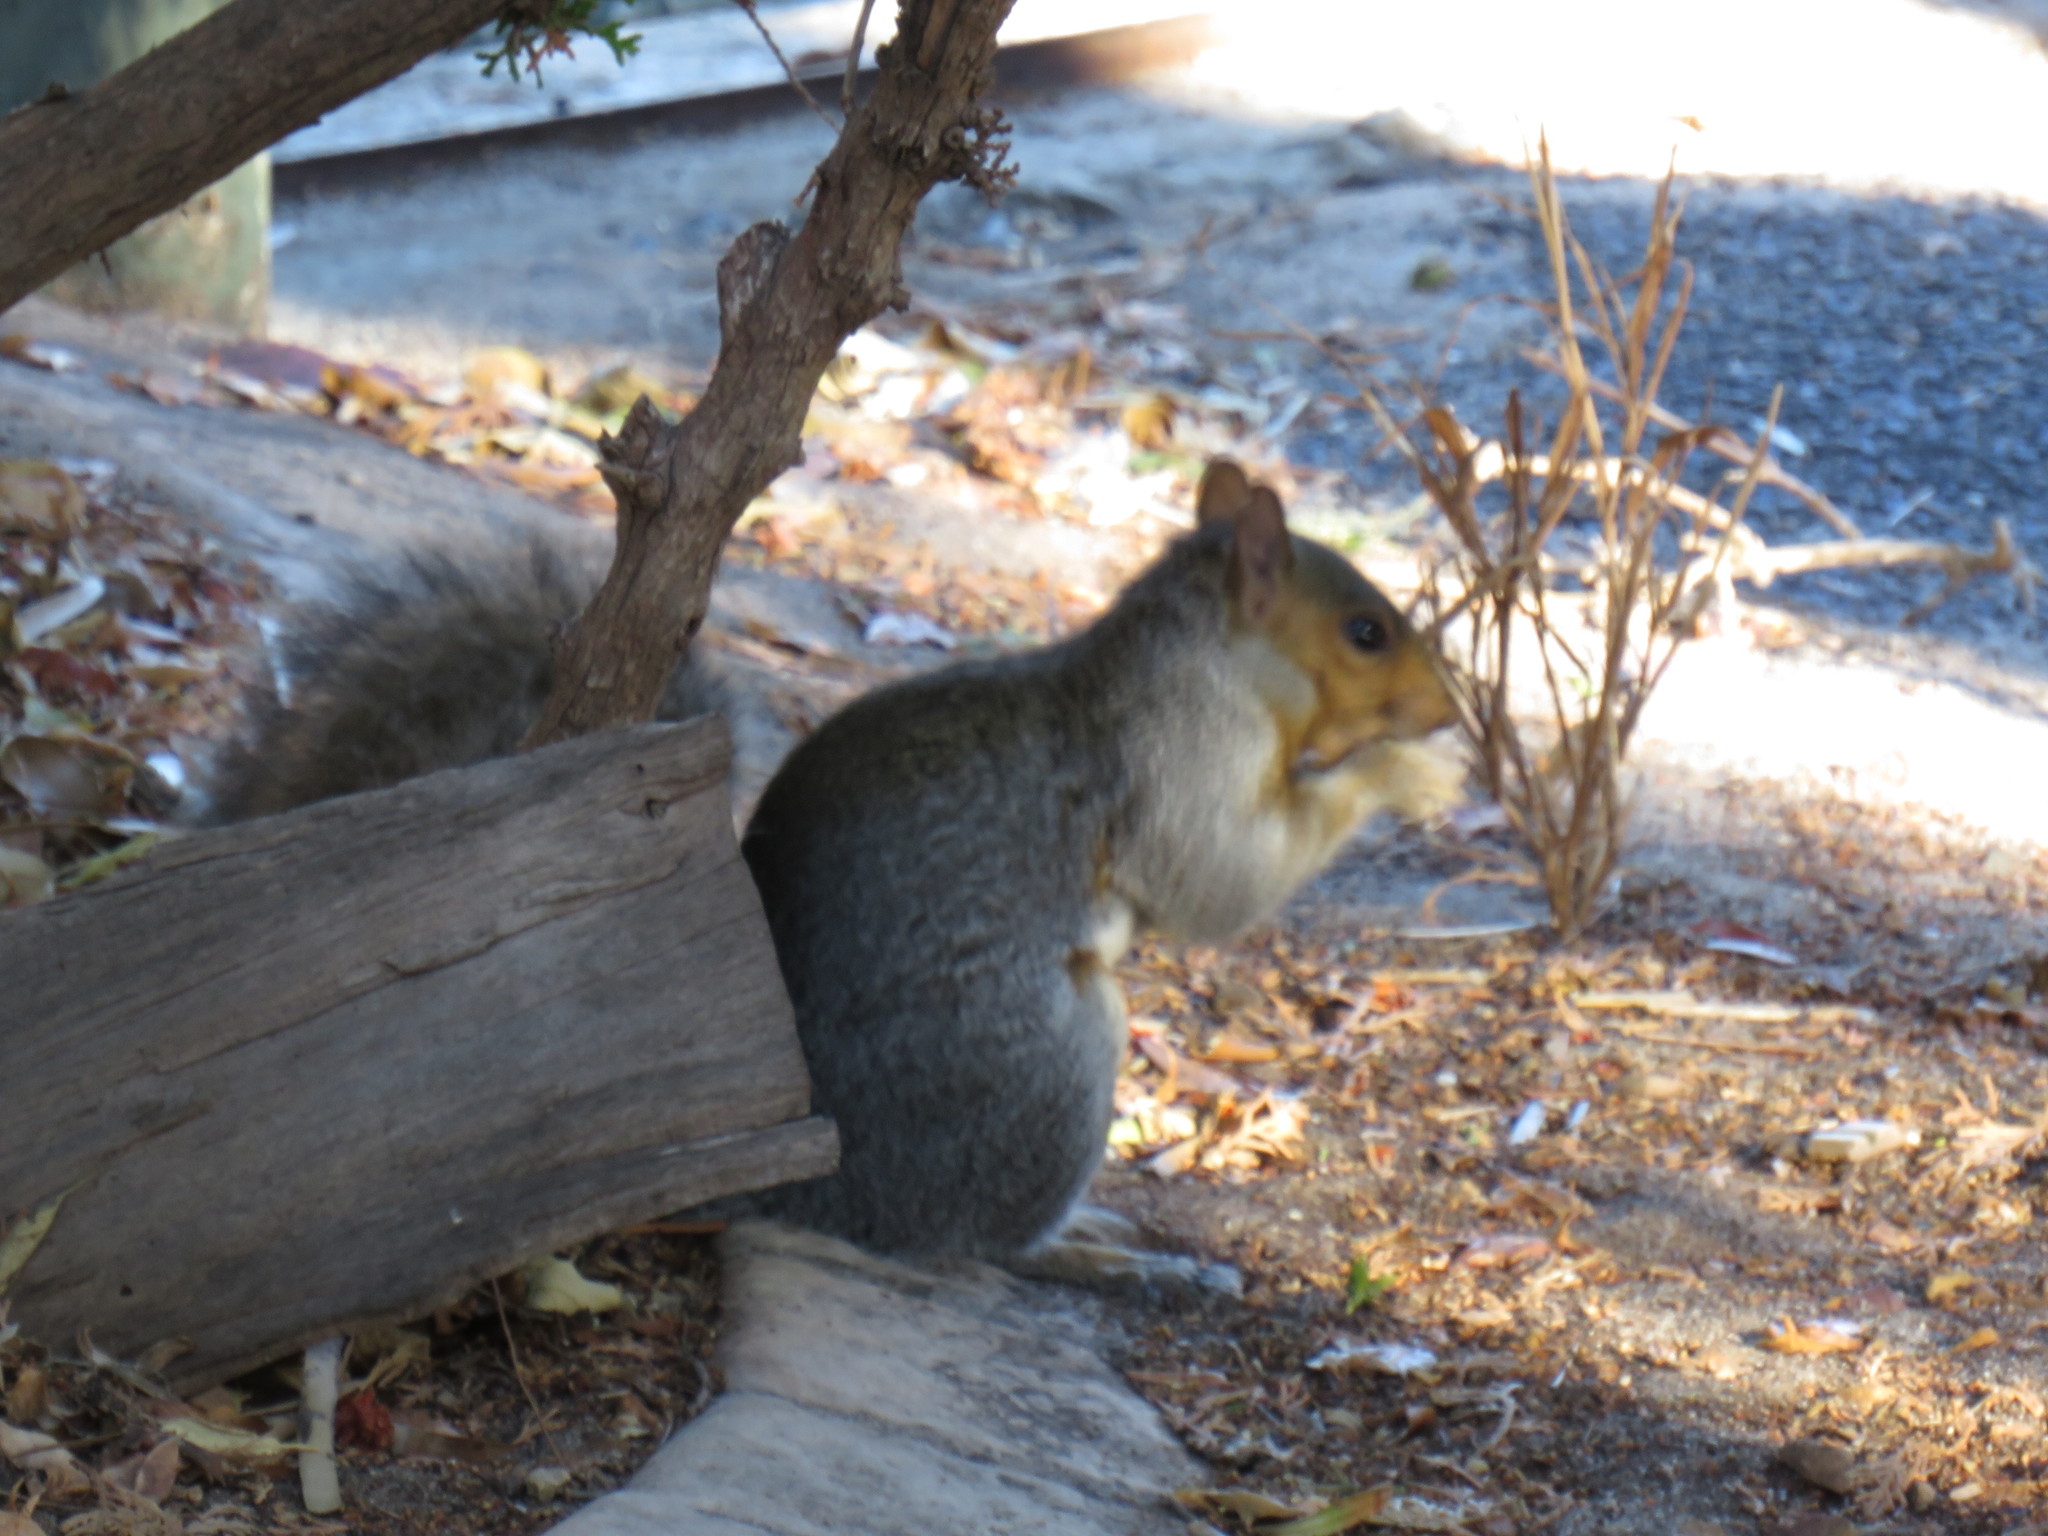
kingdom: Animalia
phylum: Chordata
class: Mammalia
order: Rodentia
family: Sciuridae
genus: Sciurus
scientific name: Sciurus carolinensis
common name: Eastern gray squirrel
